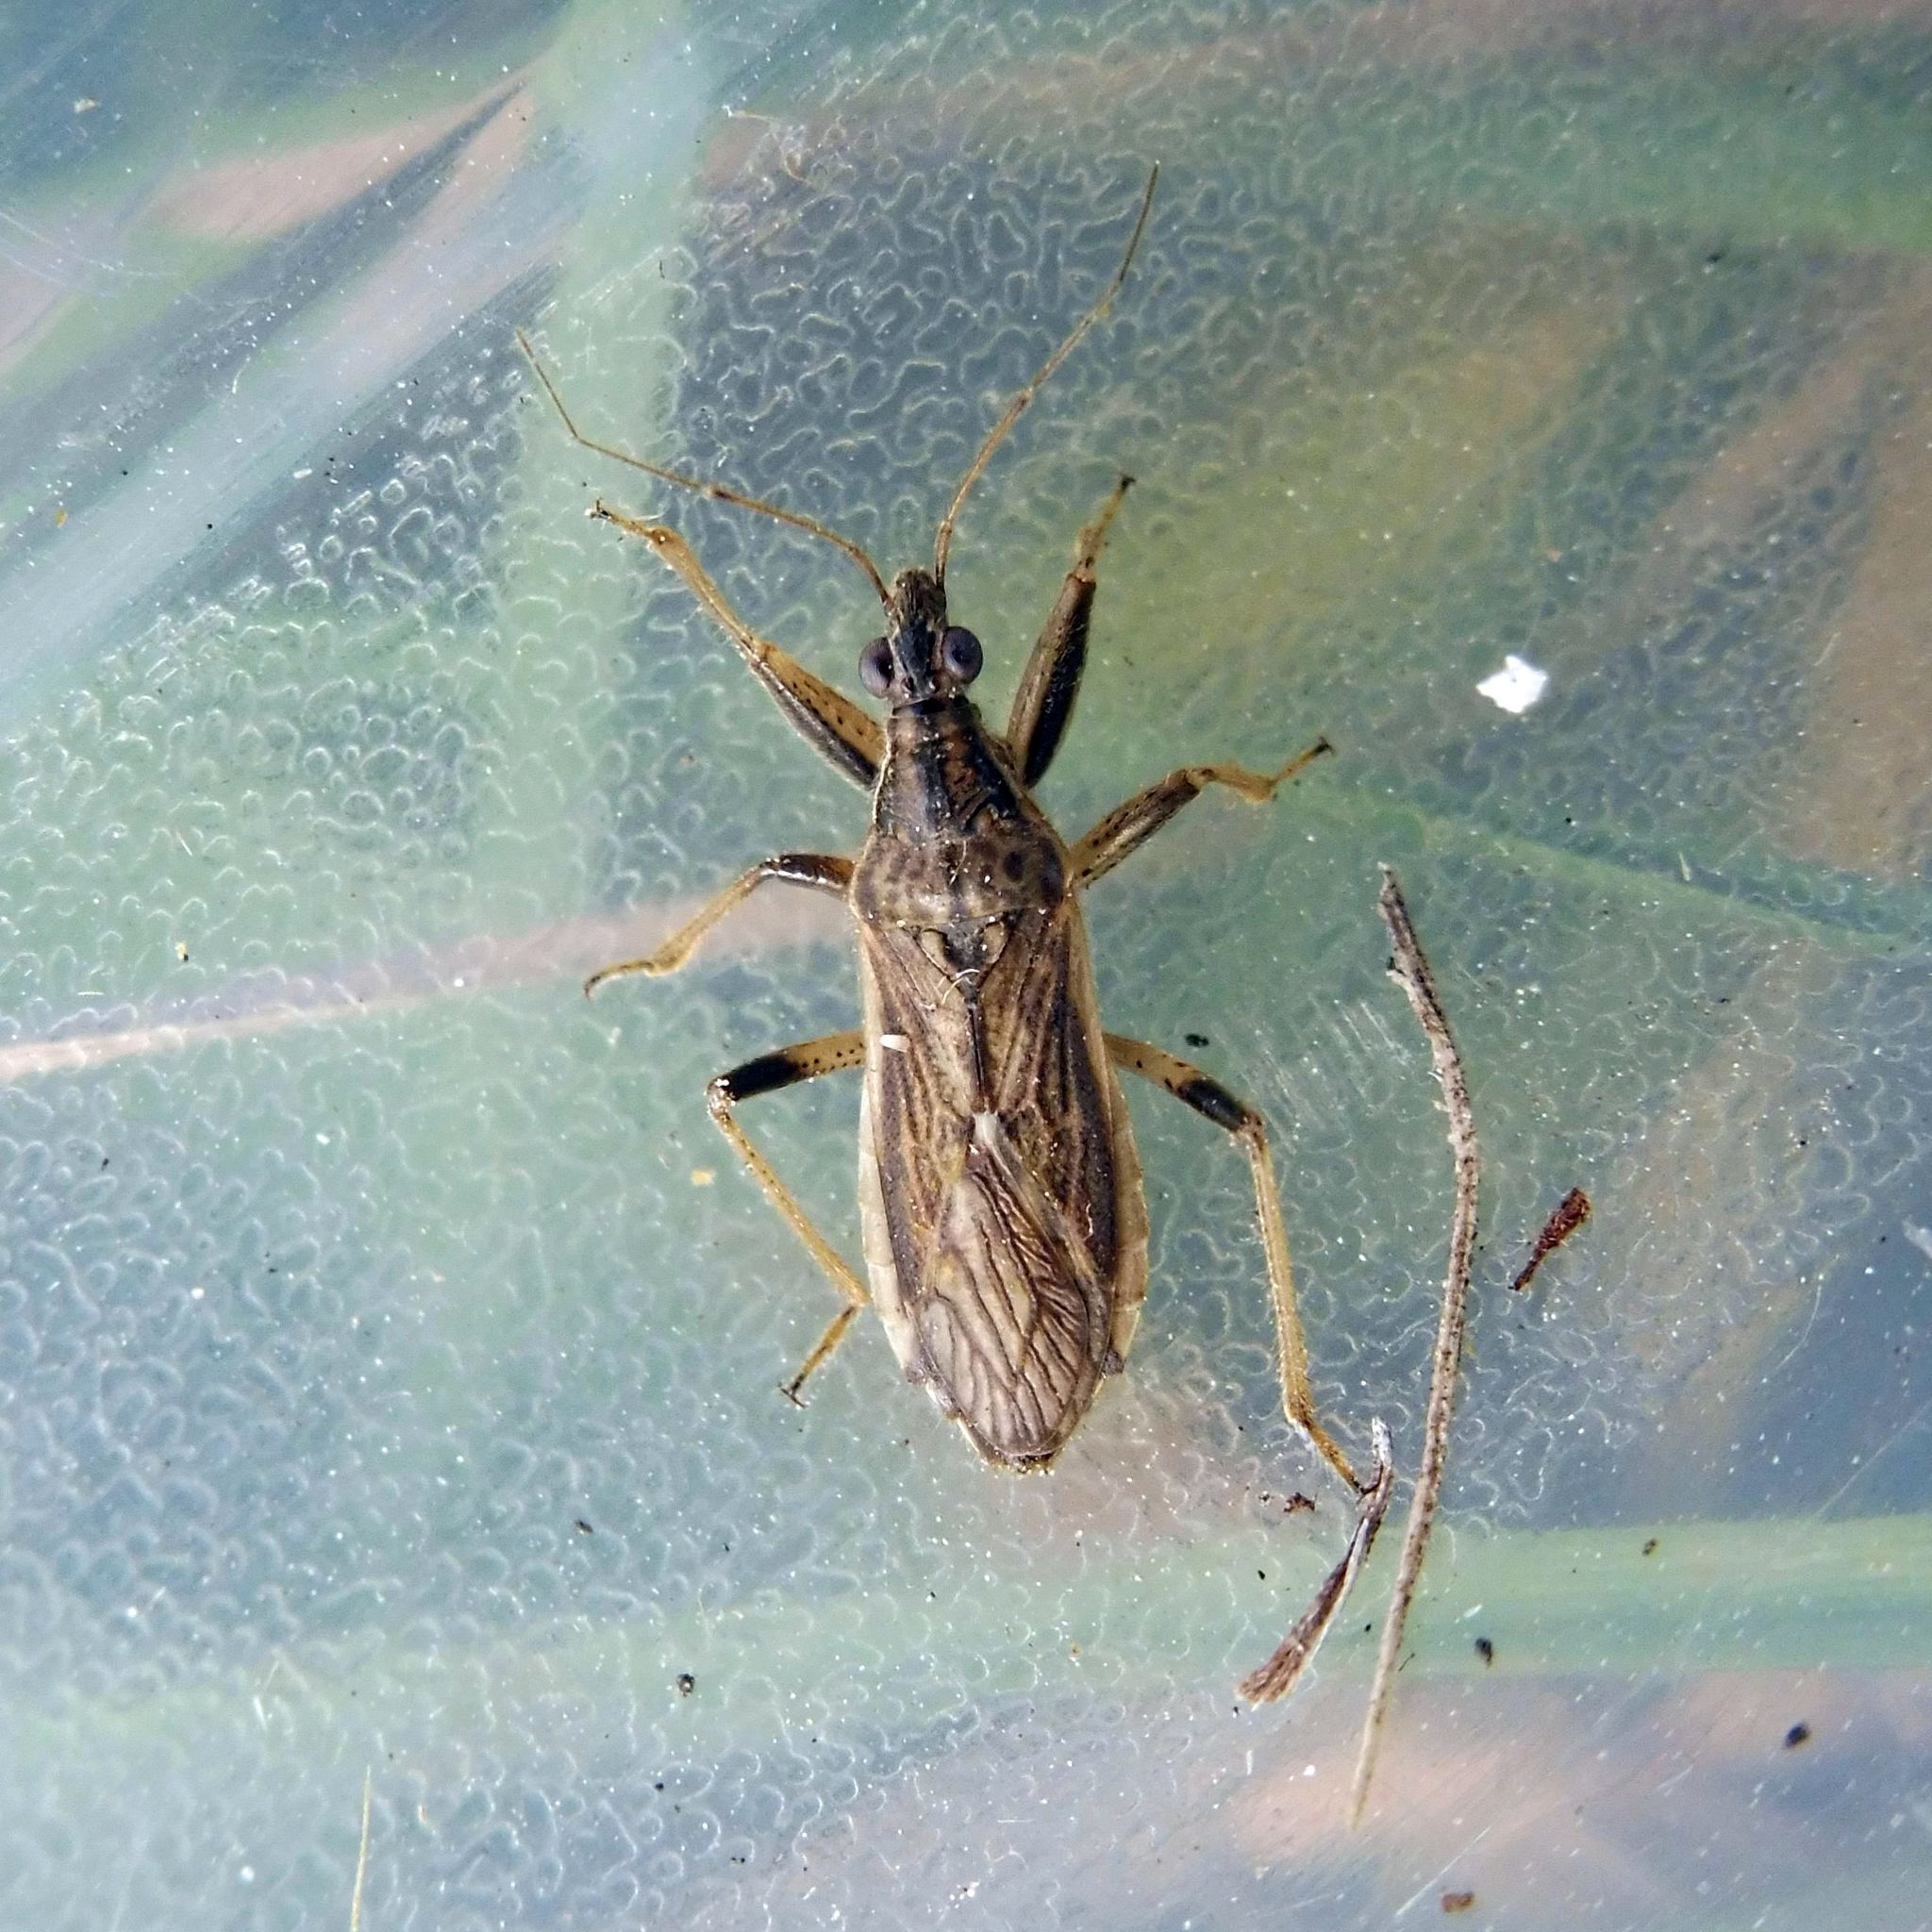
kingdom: Animalia
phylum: Arthropoda
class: Insecta
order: Hemiptera
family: Nabidae
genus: Himacerus
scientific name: Himacerus major
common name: Damsel bug
